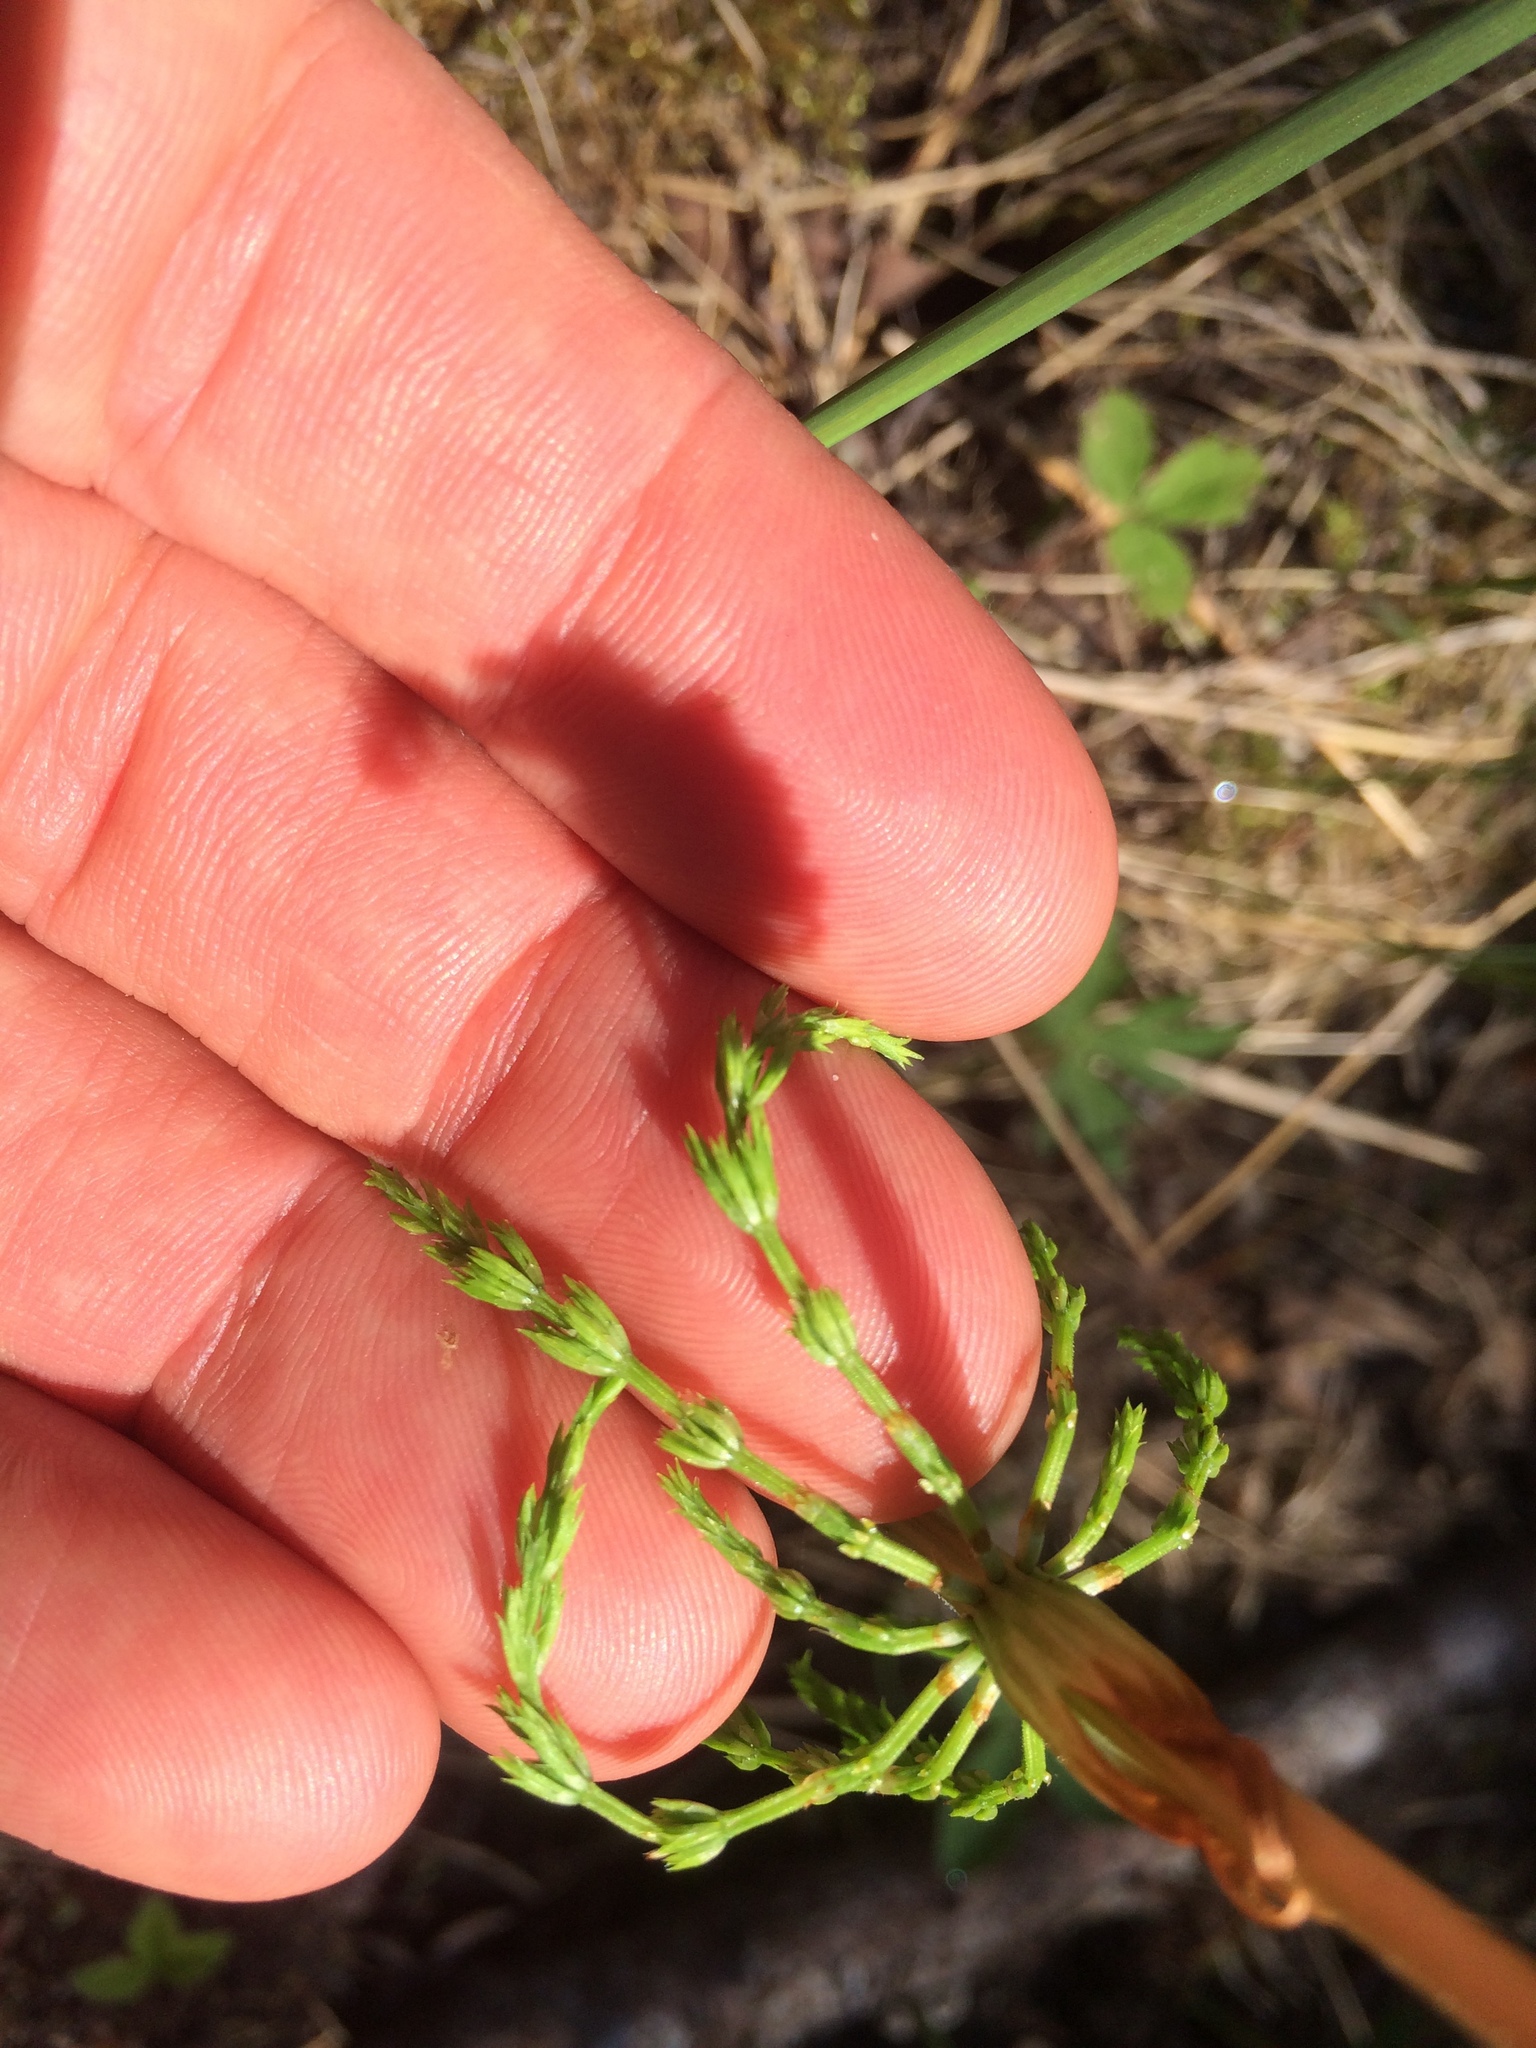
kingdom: Plantae
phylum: Tracheophyta
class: Polypodiopsida
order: Equisetales
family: Equisetaceae
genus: Equisetum
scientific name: Equisetum sylvaticum
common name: Wood horsetail
